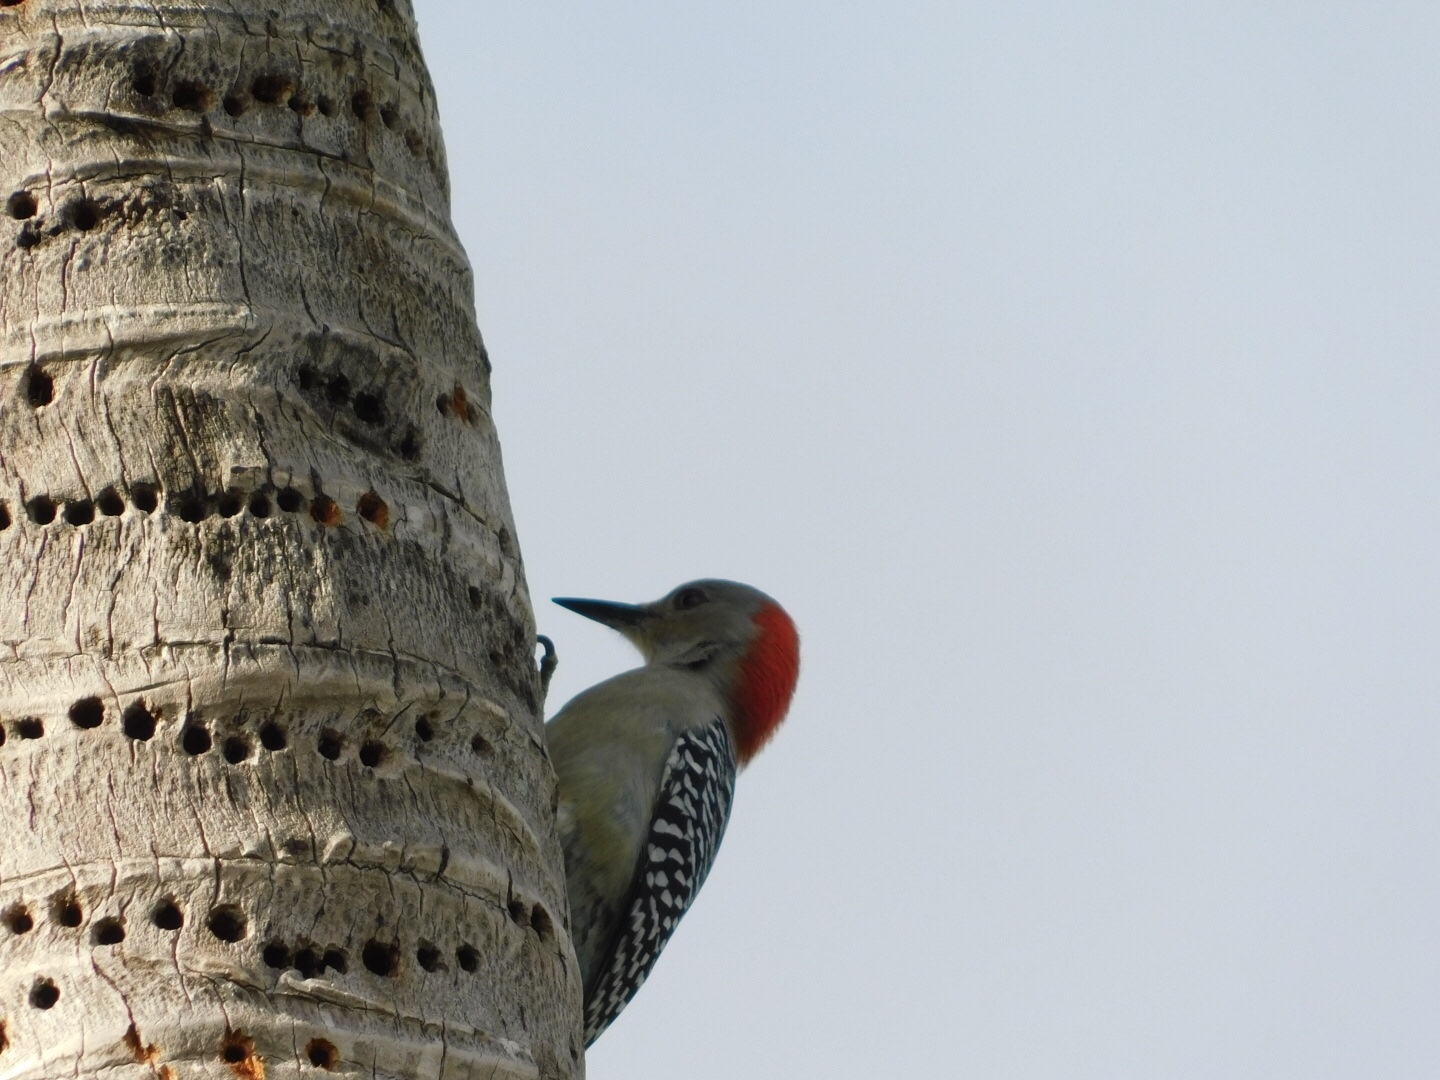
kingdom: Animalia
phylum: Chordata
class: Aves
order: Piciformes
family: Picidae
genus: Melanerpes
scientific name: Melanerpes carolinus
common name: Red-bellied woodpecker
